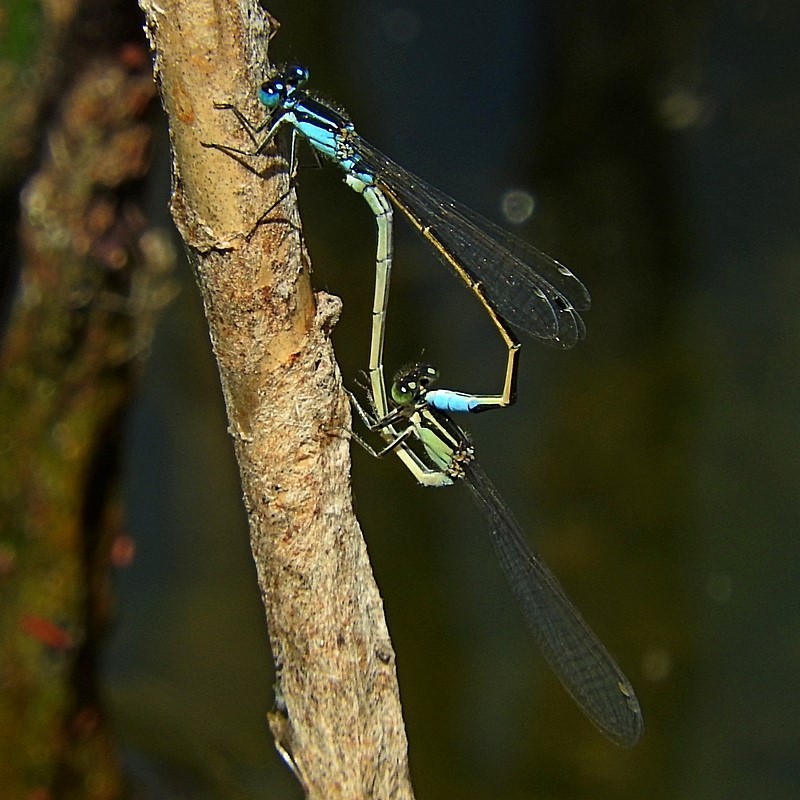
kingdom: Animalia
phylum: Arthropoda
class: Insecta
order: Odonata
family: Coenagrionidae
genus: Ischnura
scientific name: Ischnura heterosticta
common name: Common bluetail
